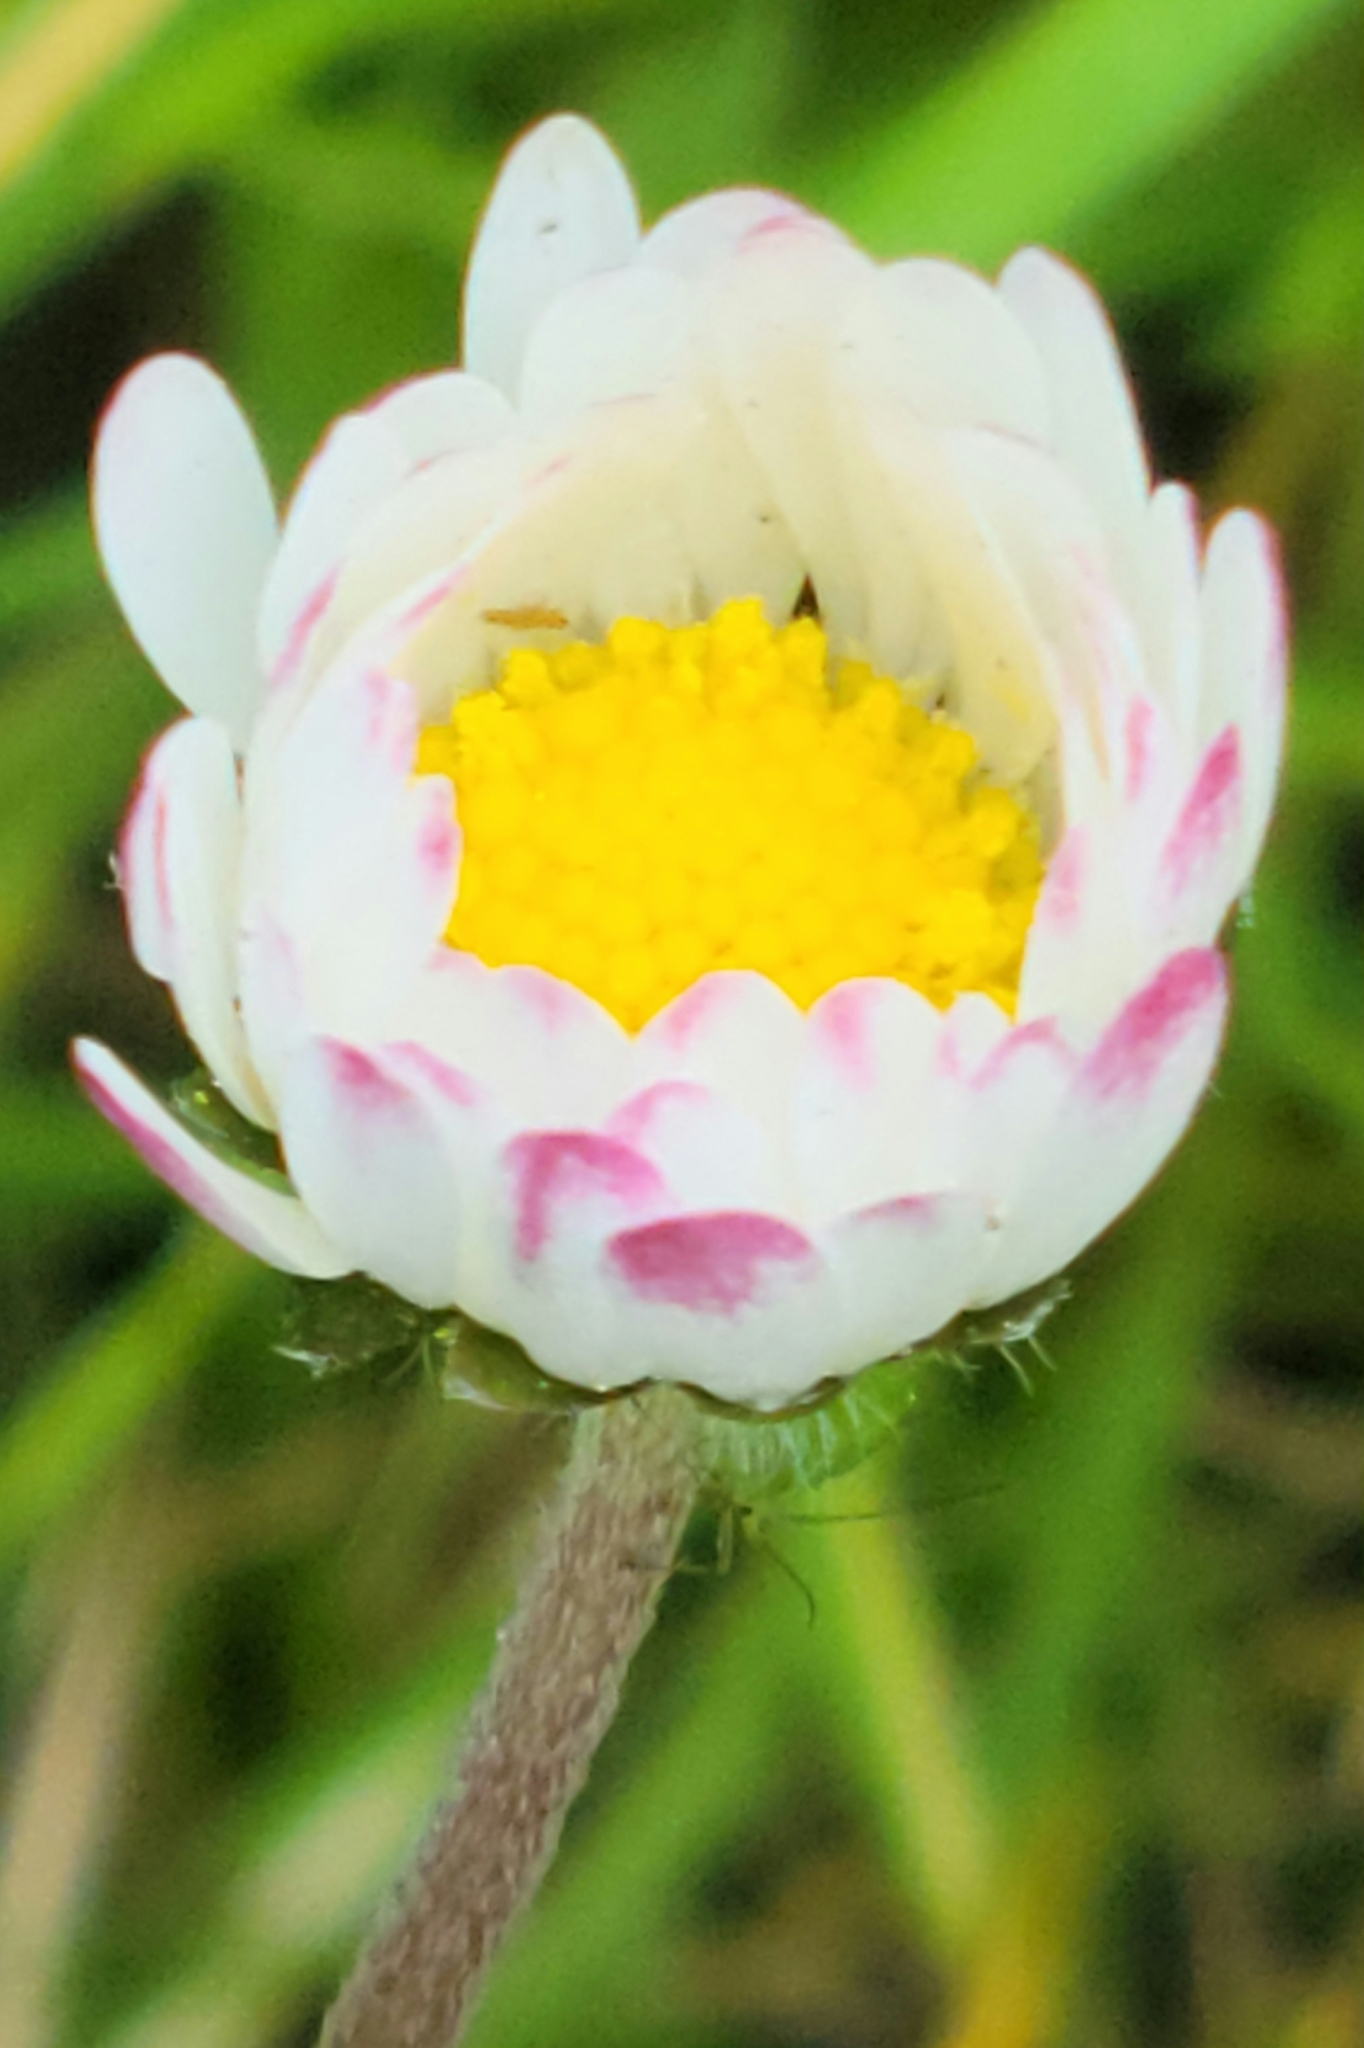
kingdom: Plantae
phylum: Tracheophyta
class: Magnoliopsida
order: Asterales
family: Asteraceae
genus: Bellis
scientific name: Bellis perennis
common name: Lawndaisy
